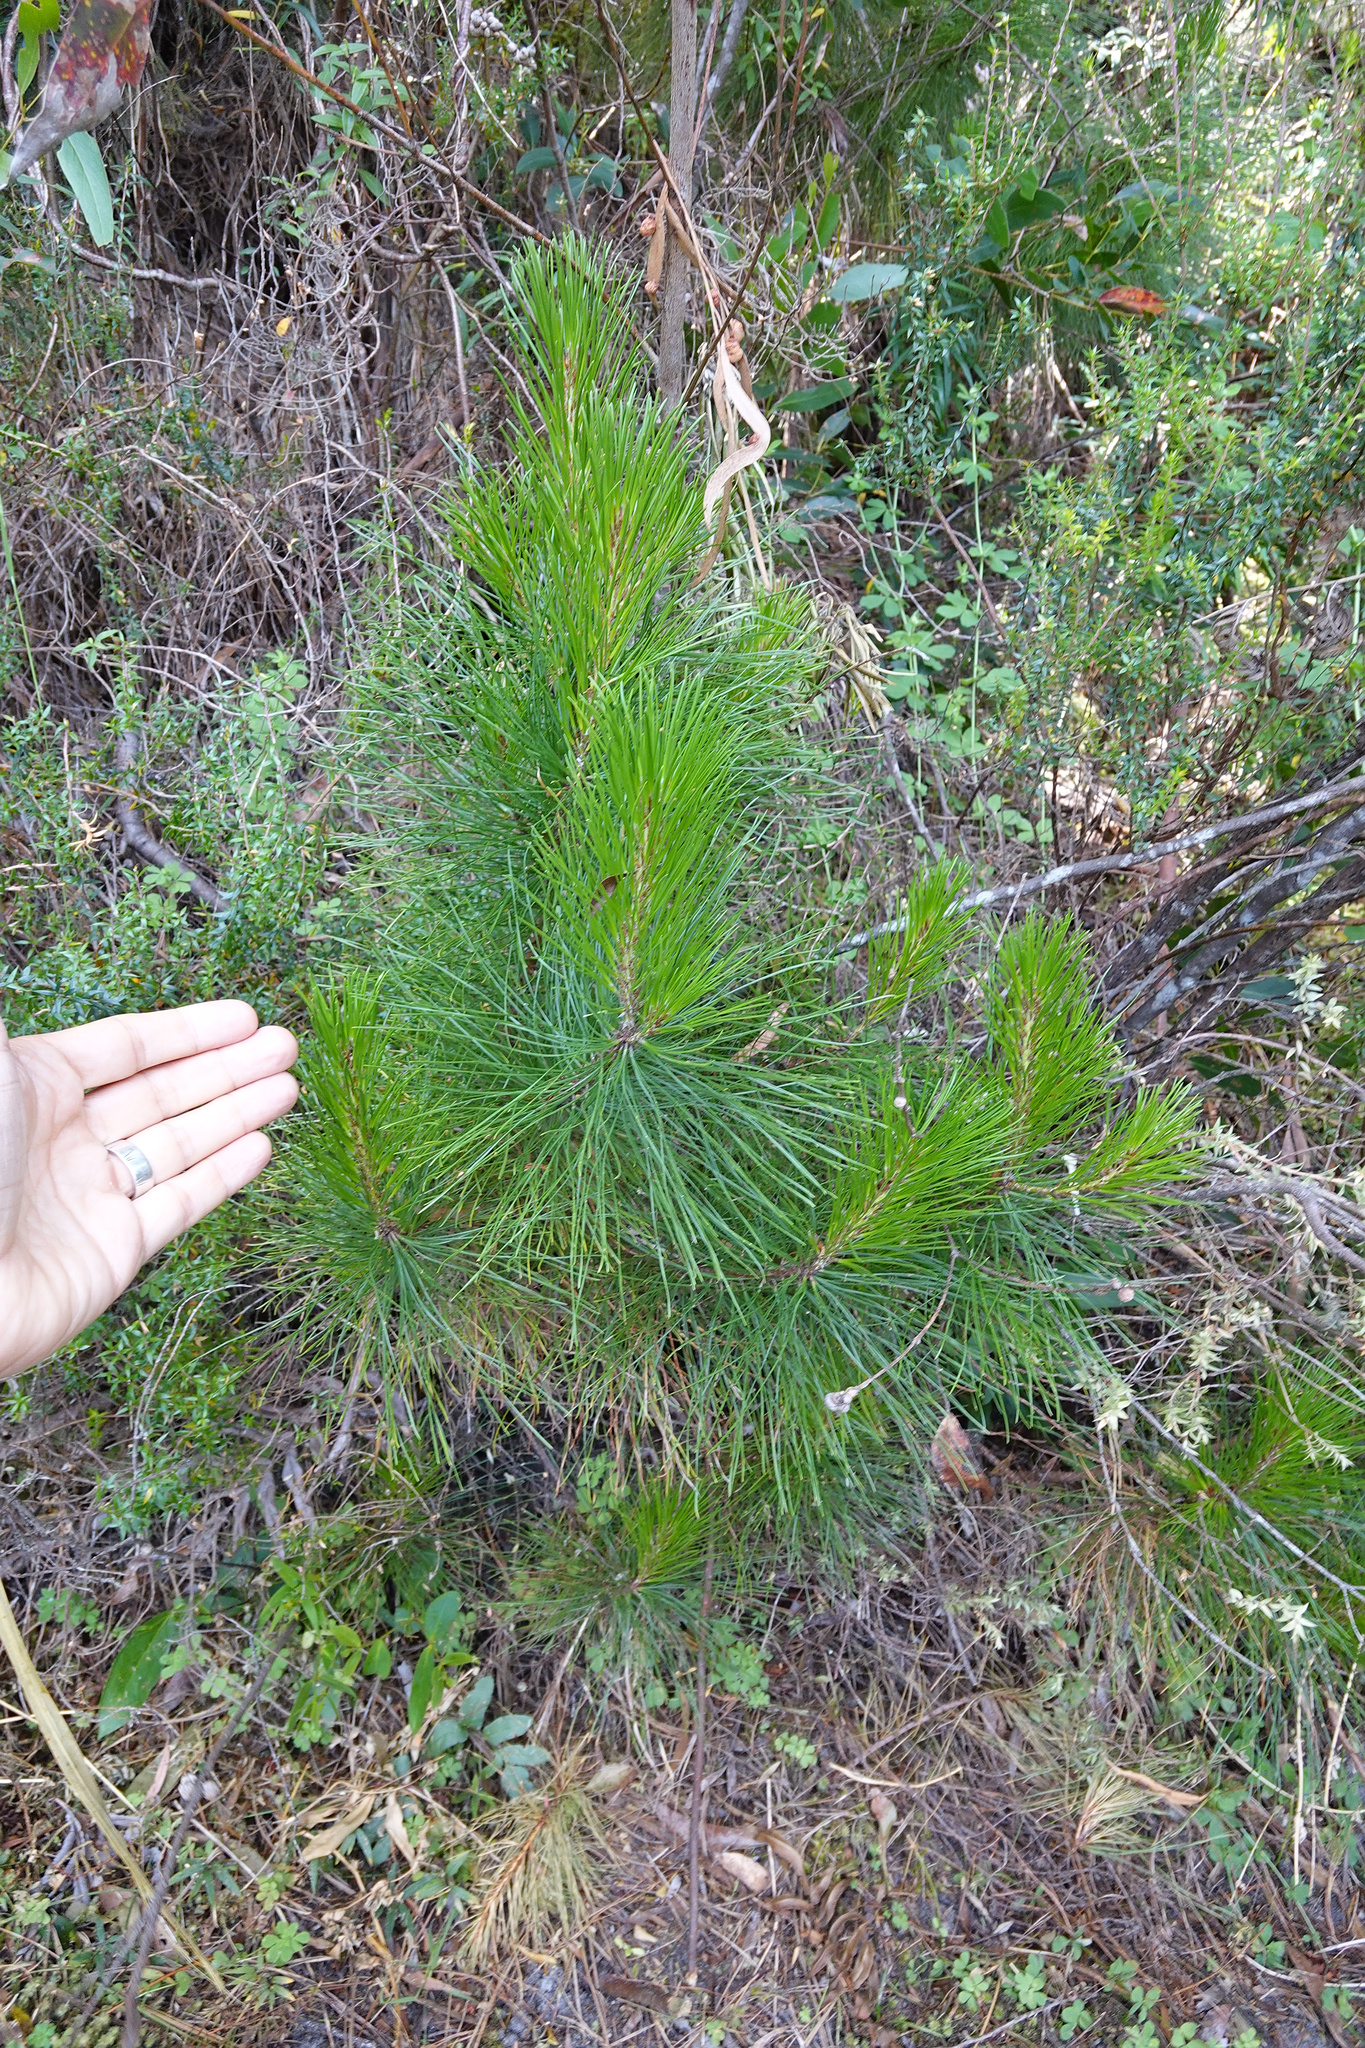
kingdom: Plantae
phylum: Tracheophyta
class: Pinopsida
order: Pinales
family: Pinaceae
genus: Pinus
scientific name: Pinus radiata
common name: Monterey pine
